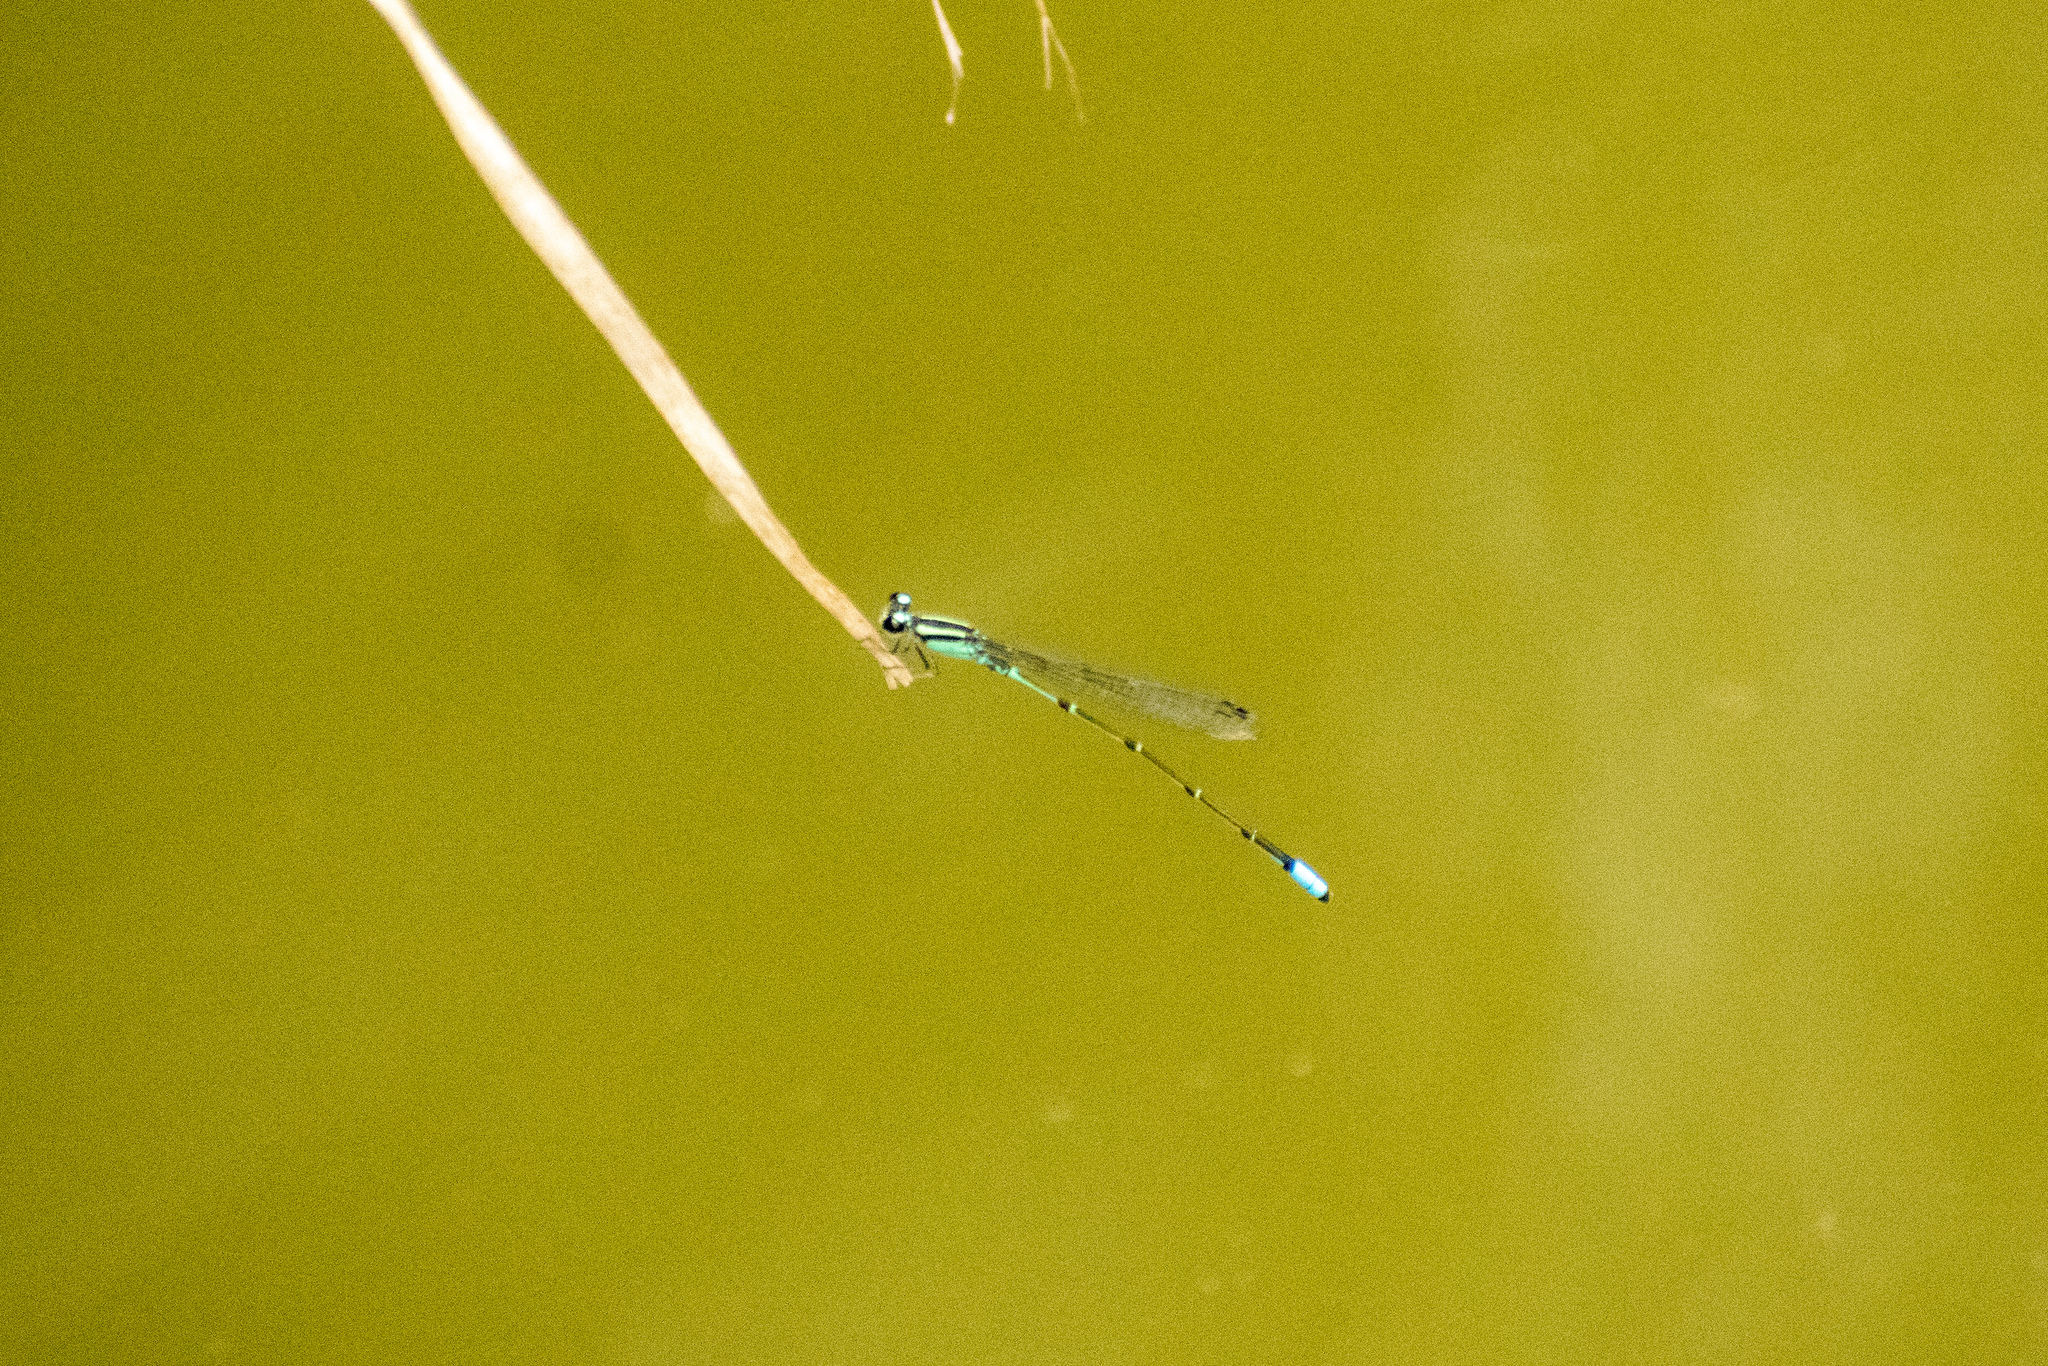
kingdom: Animalia
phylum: Arthropoda
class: Insecta
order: Odonata
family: Coenagrionidae
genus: Acanthagrion
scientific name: Acanthagrion lancea
